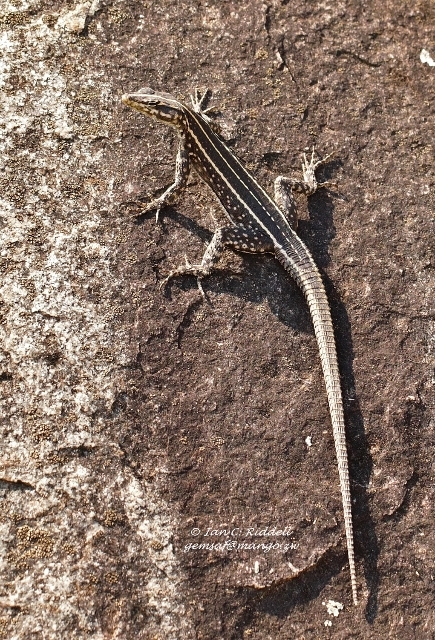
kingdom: Animalia
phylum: Chordata
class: Squamata
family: Cordylidae
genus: Platysaurus
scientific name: Platysaurus intermedius
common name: Common flat lizard
